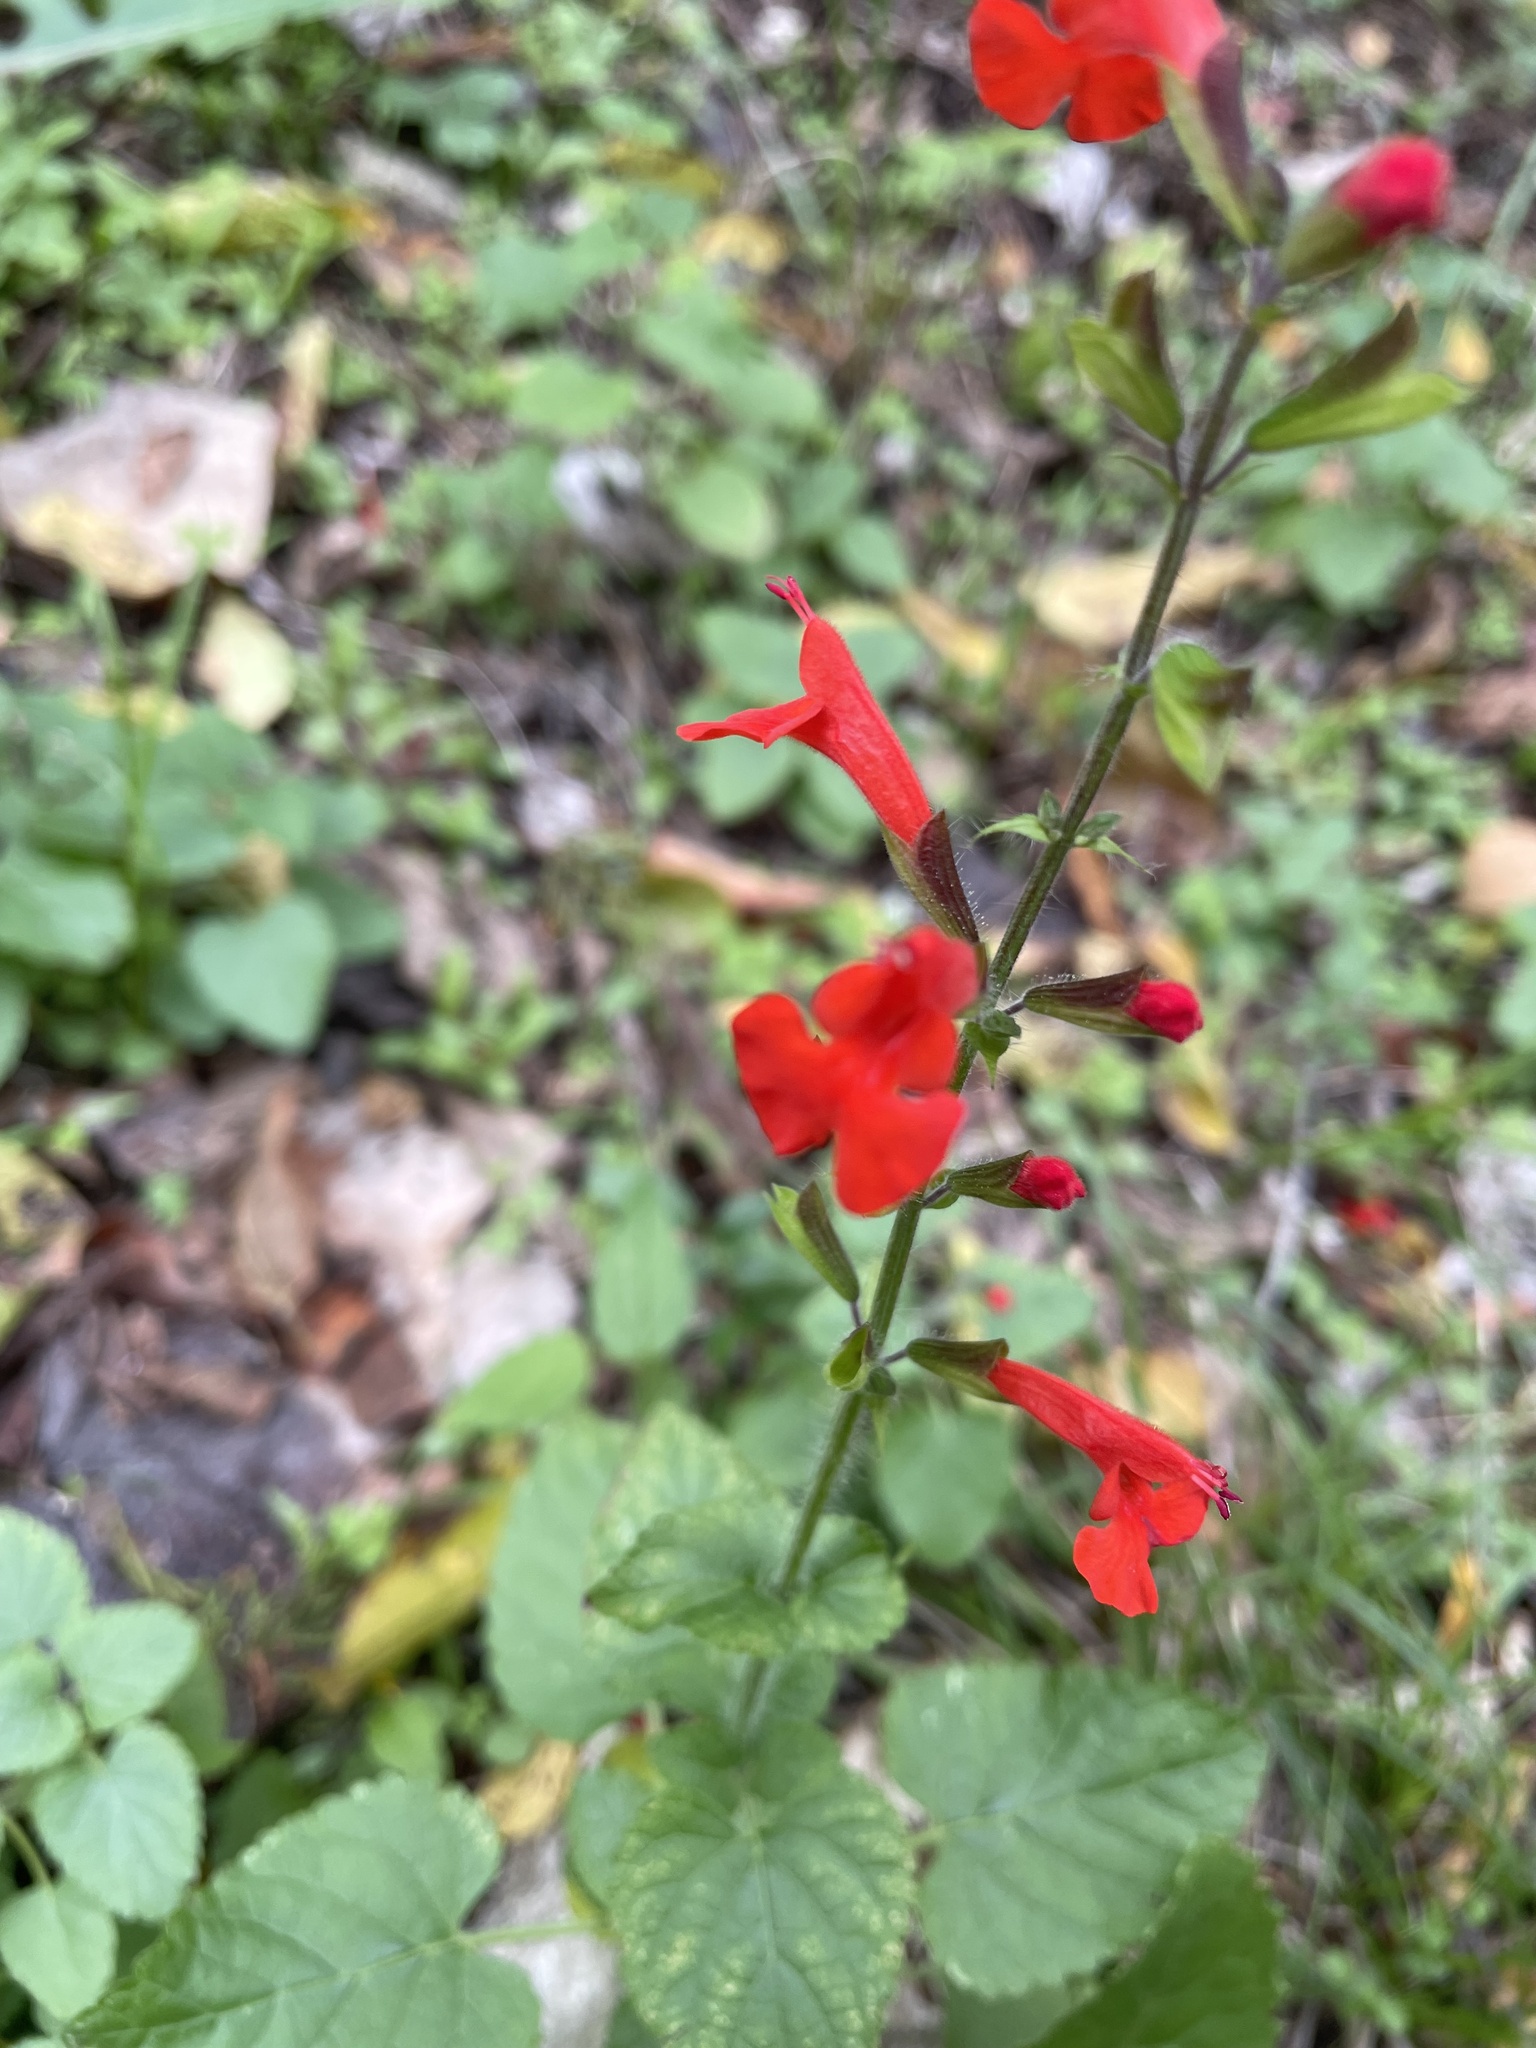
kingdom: Plantae
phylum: Tracheophyta
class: Magnoliopsida
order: Lamiales
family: Lamiaceae
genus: Salvia
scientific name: Salvia coccinea
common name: Blood sage
